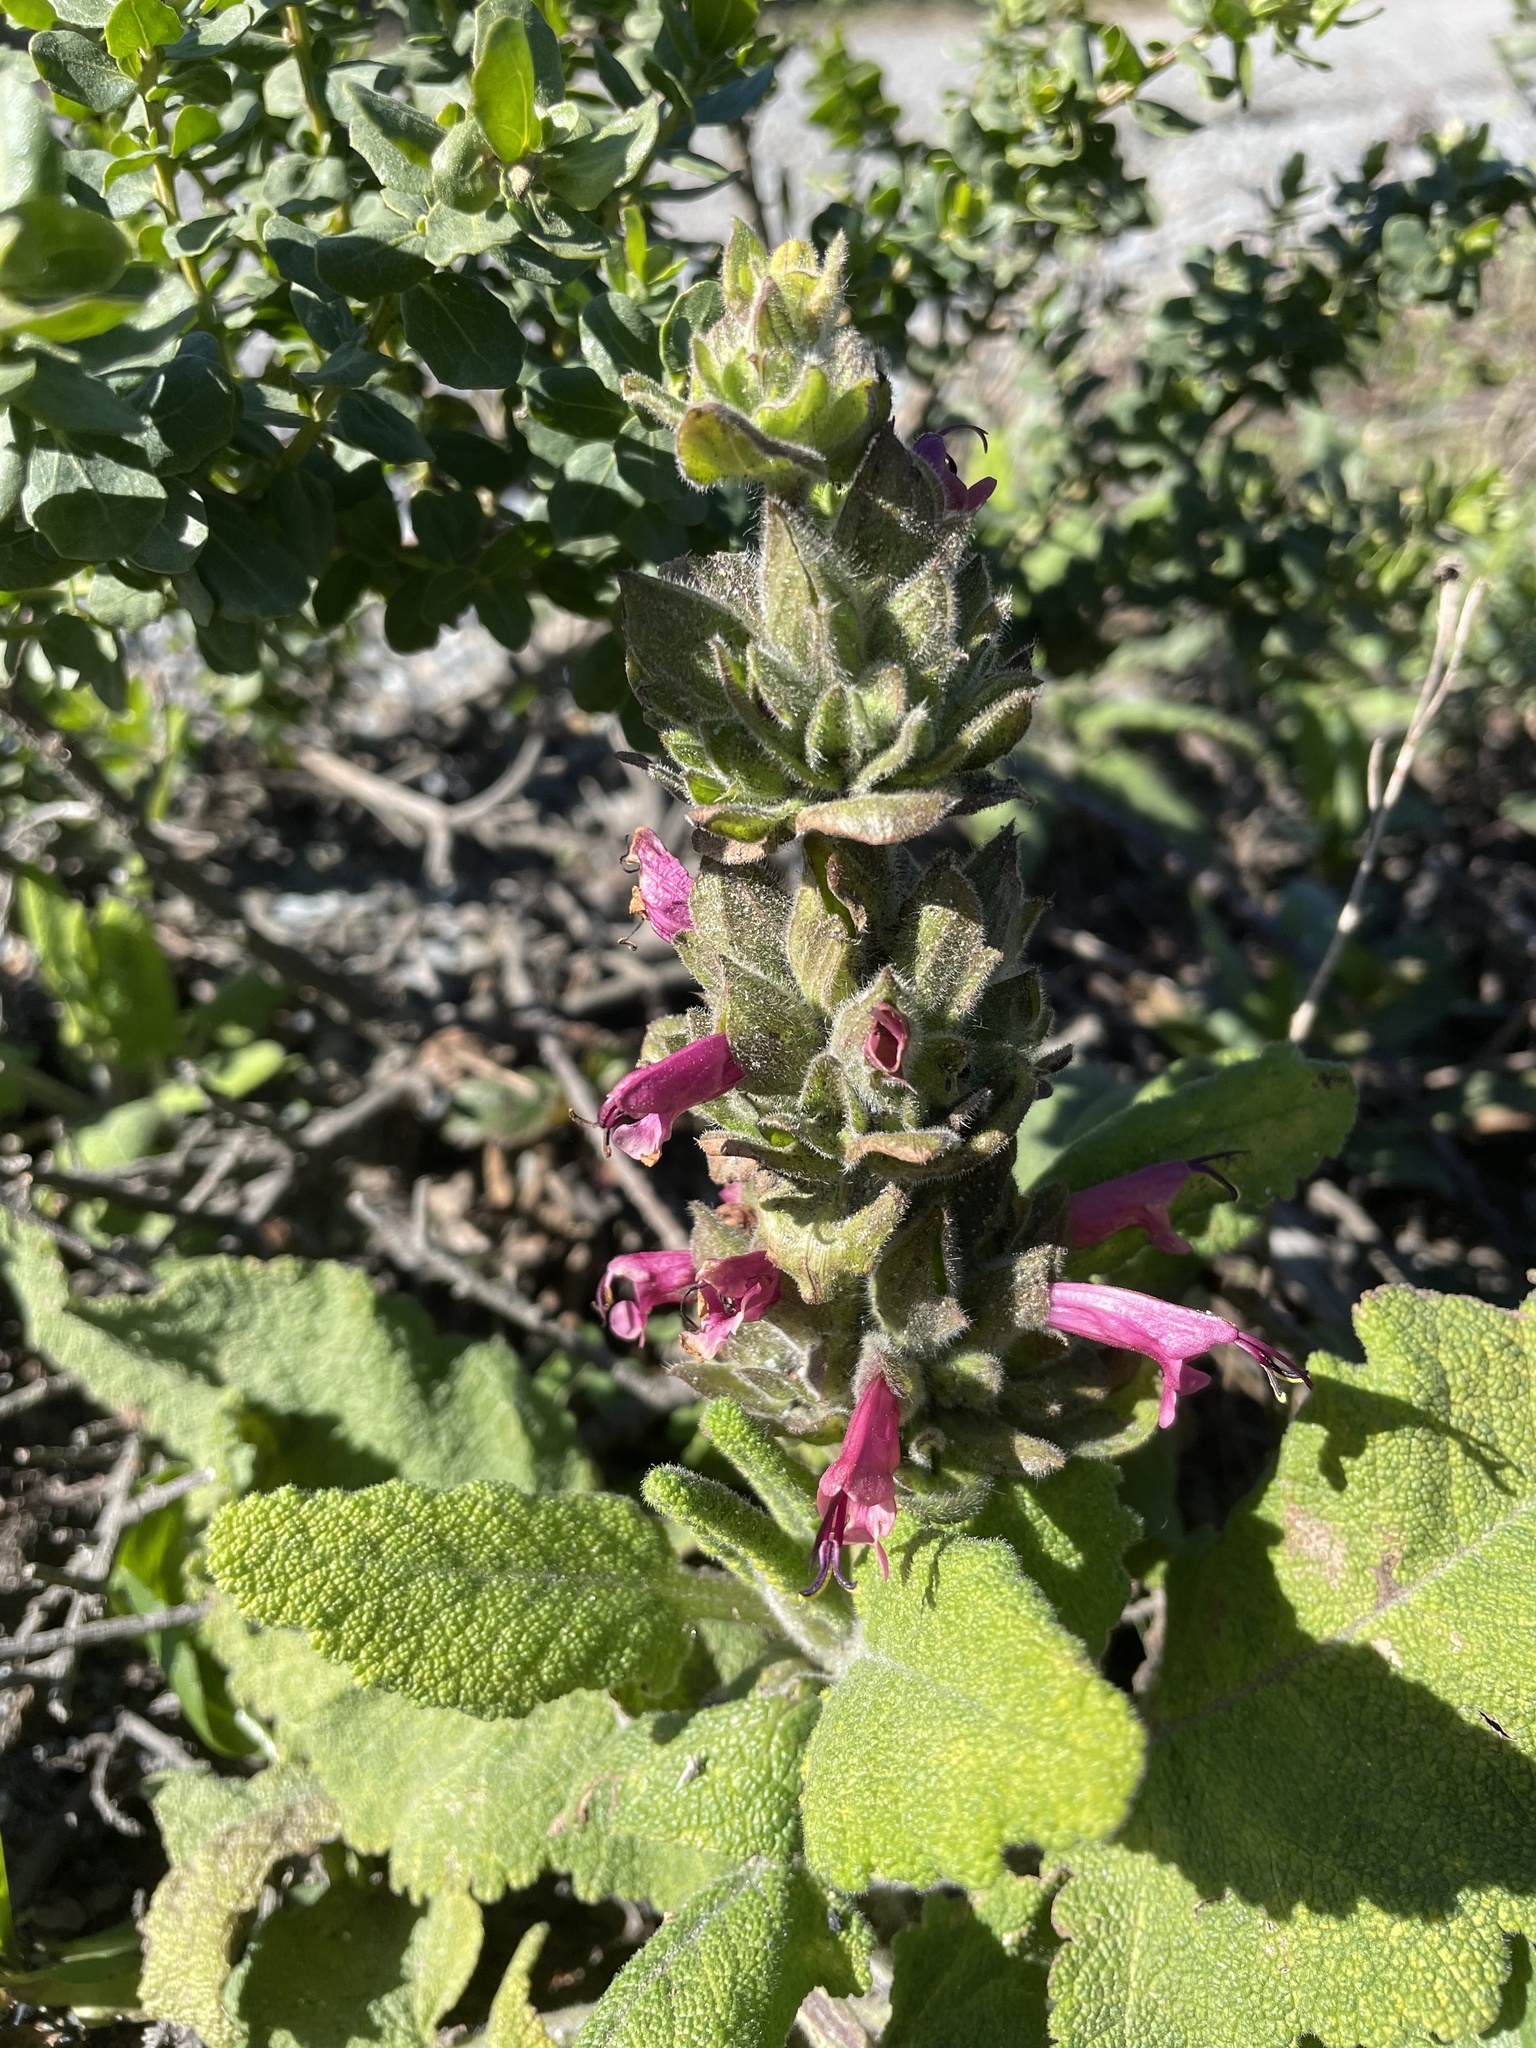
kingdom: Plantae
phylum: Tracheophyta
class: Magnoliopsida
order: Lamiales
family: Lamiaceae
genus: Salvia
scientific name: Salvia spathacea
